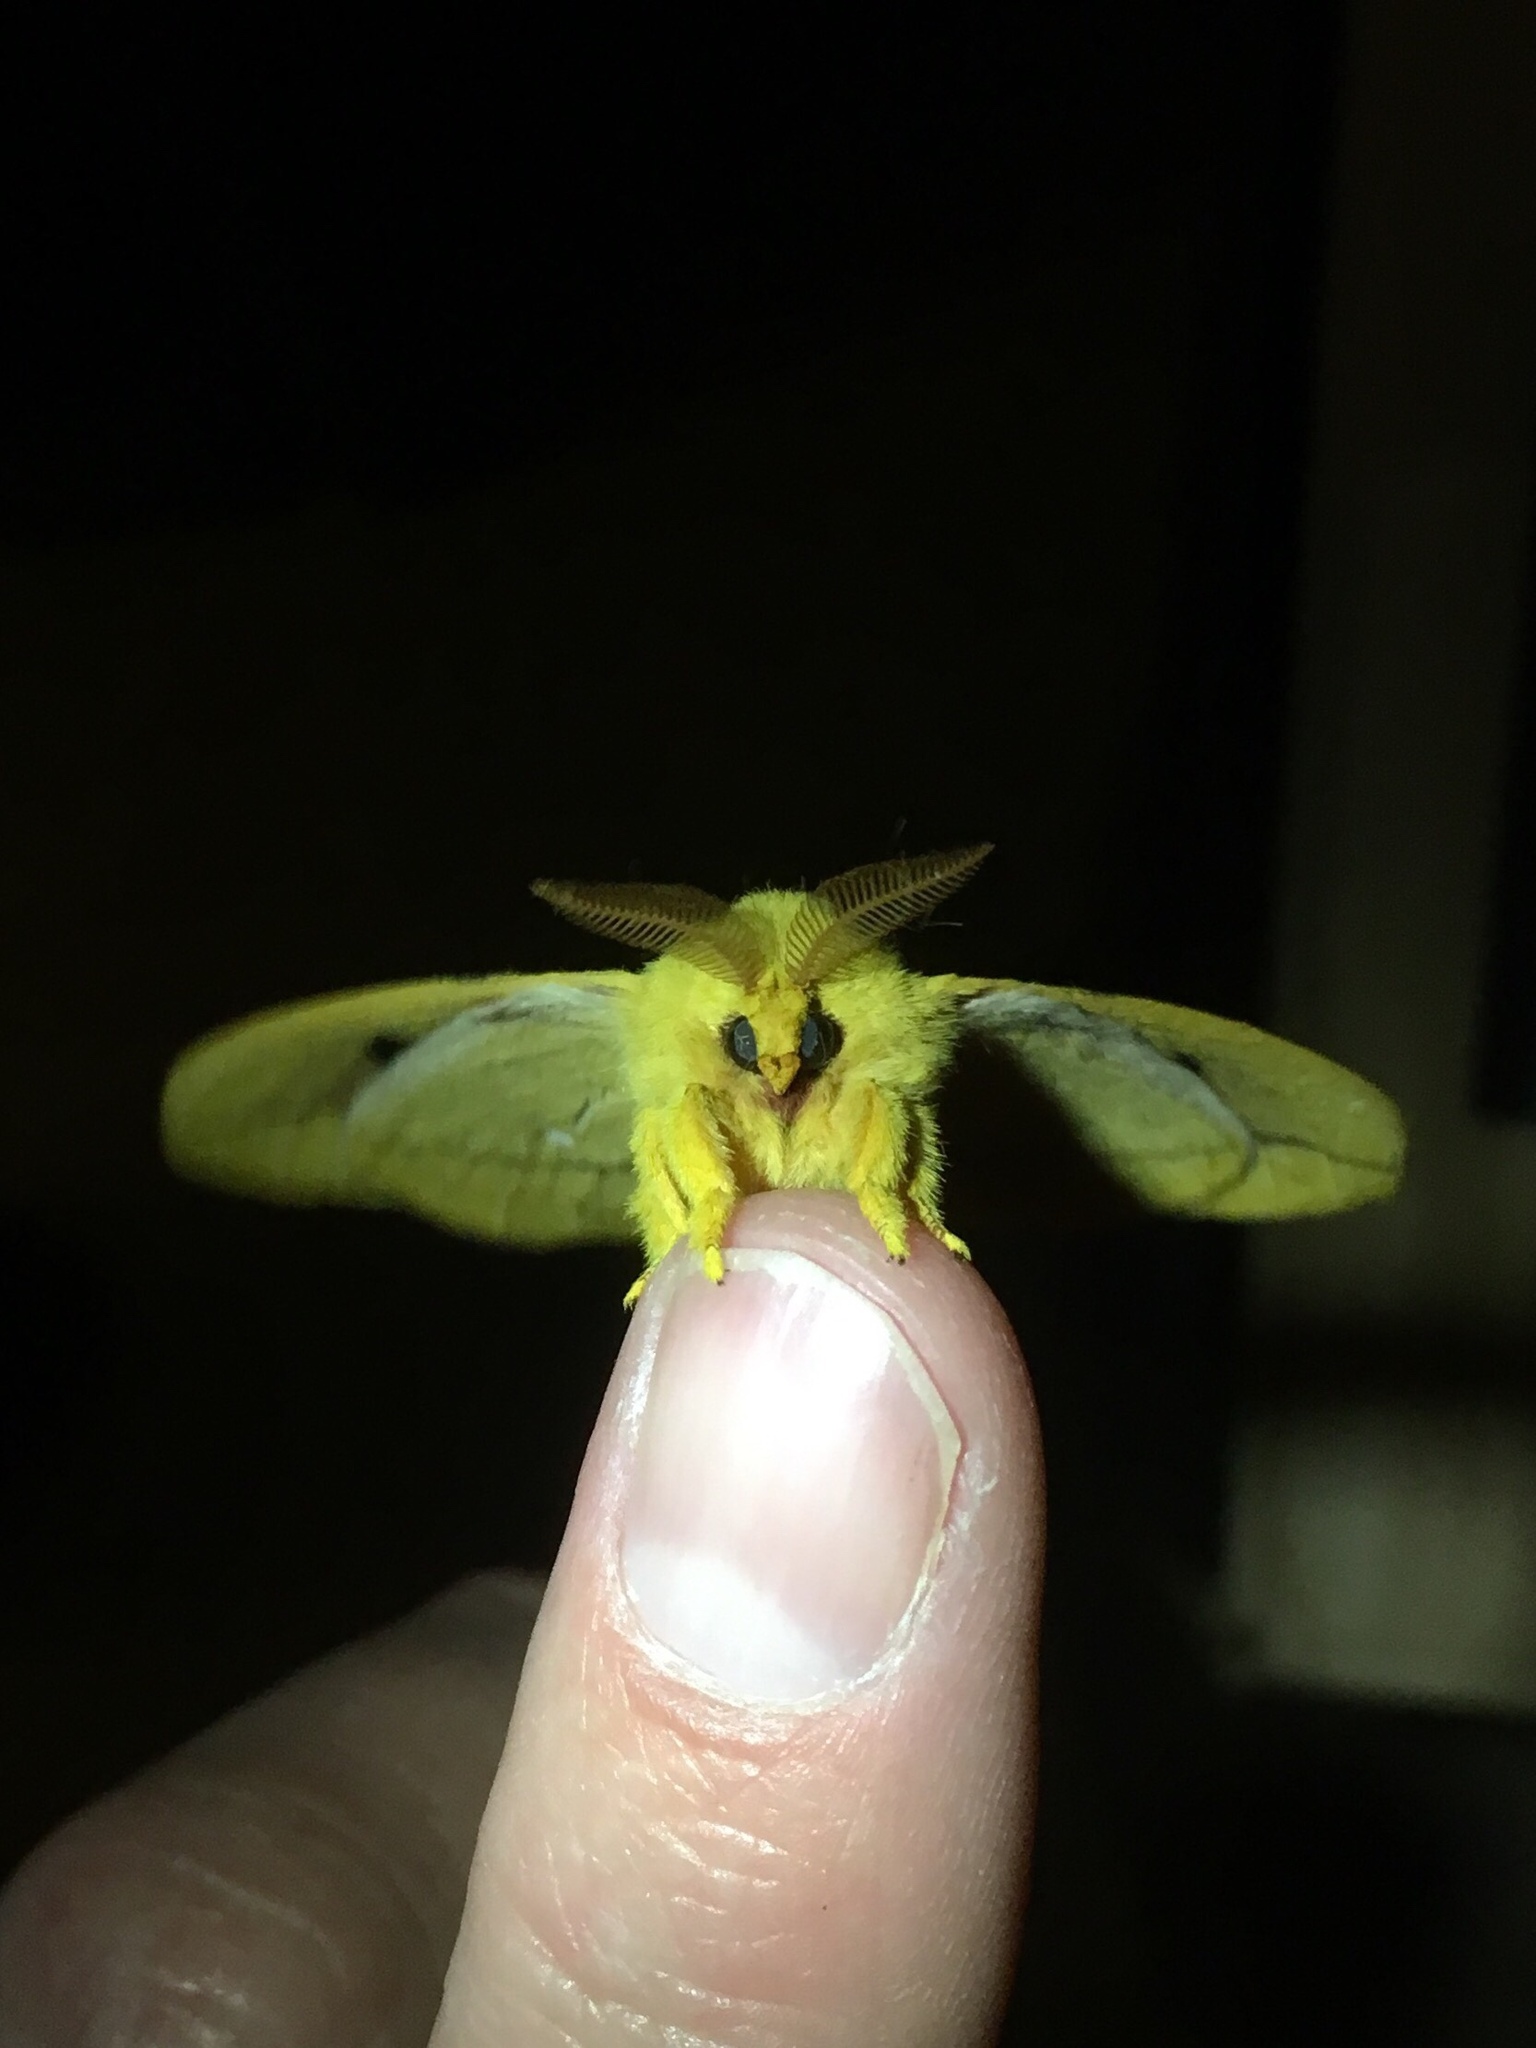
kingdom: Animalia
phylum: Arthropoda
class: Insecta
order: Lepidoptera
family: Saturniidae
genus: Automeris
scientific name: Automeris io
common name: Io moth
